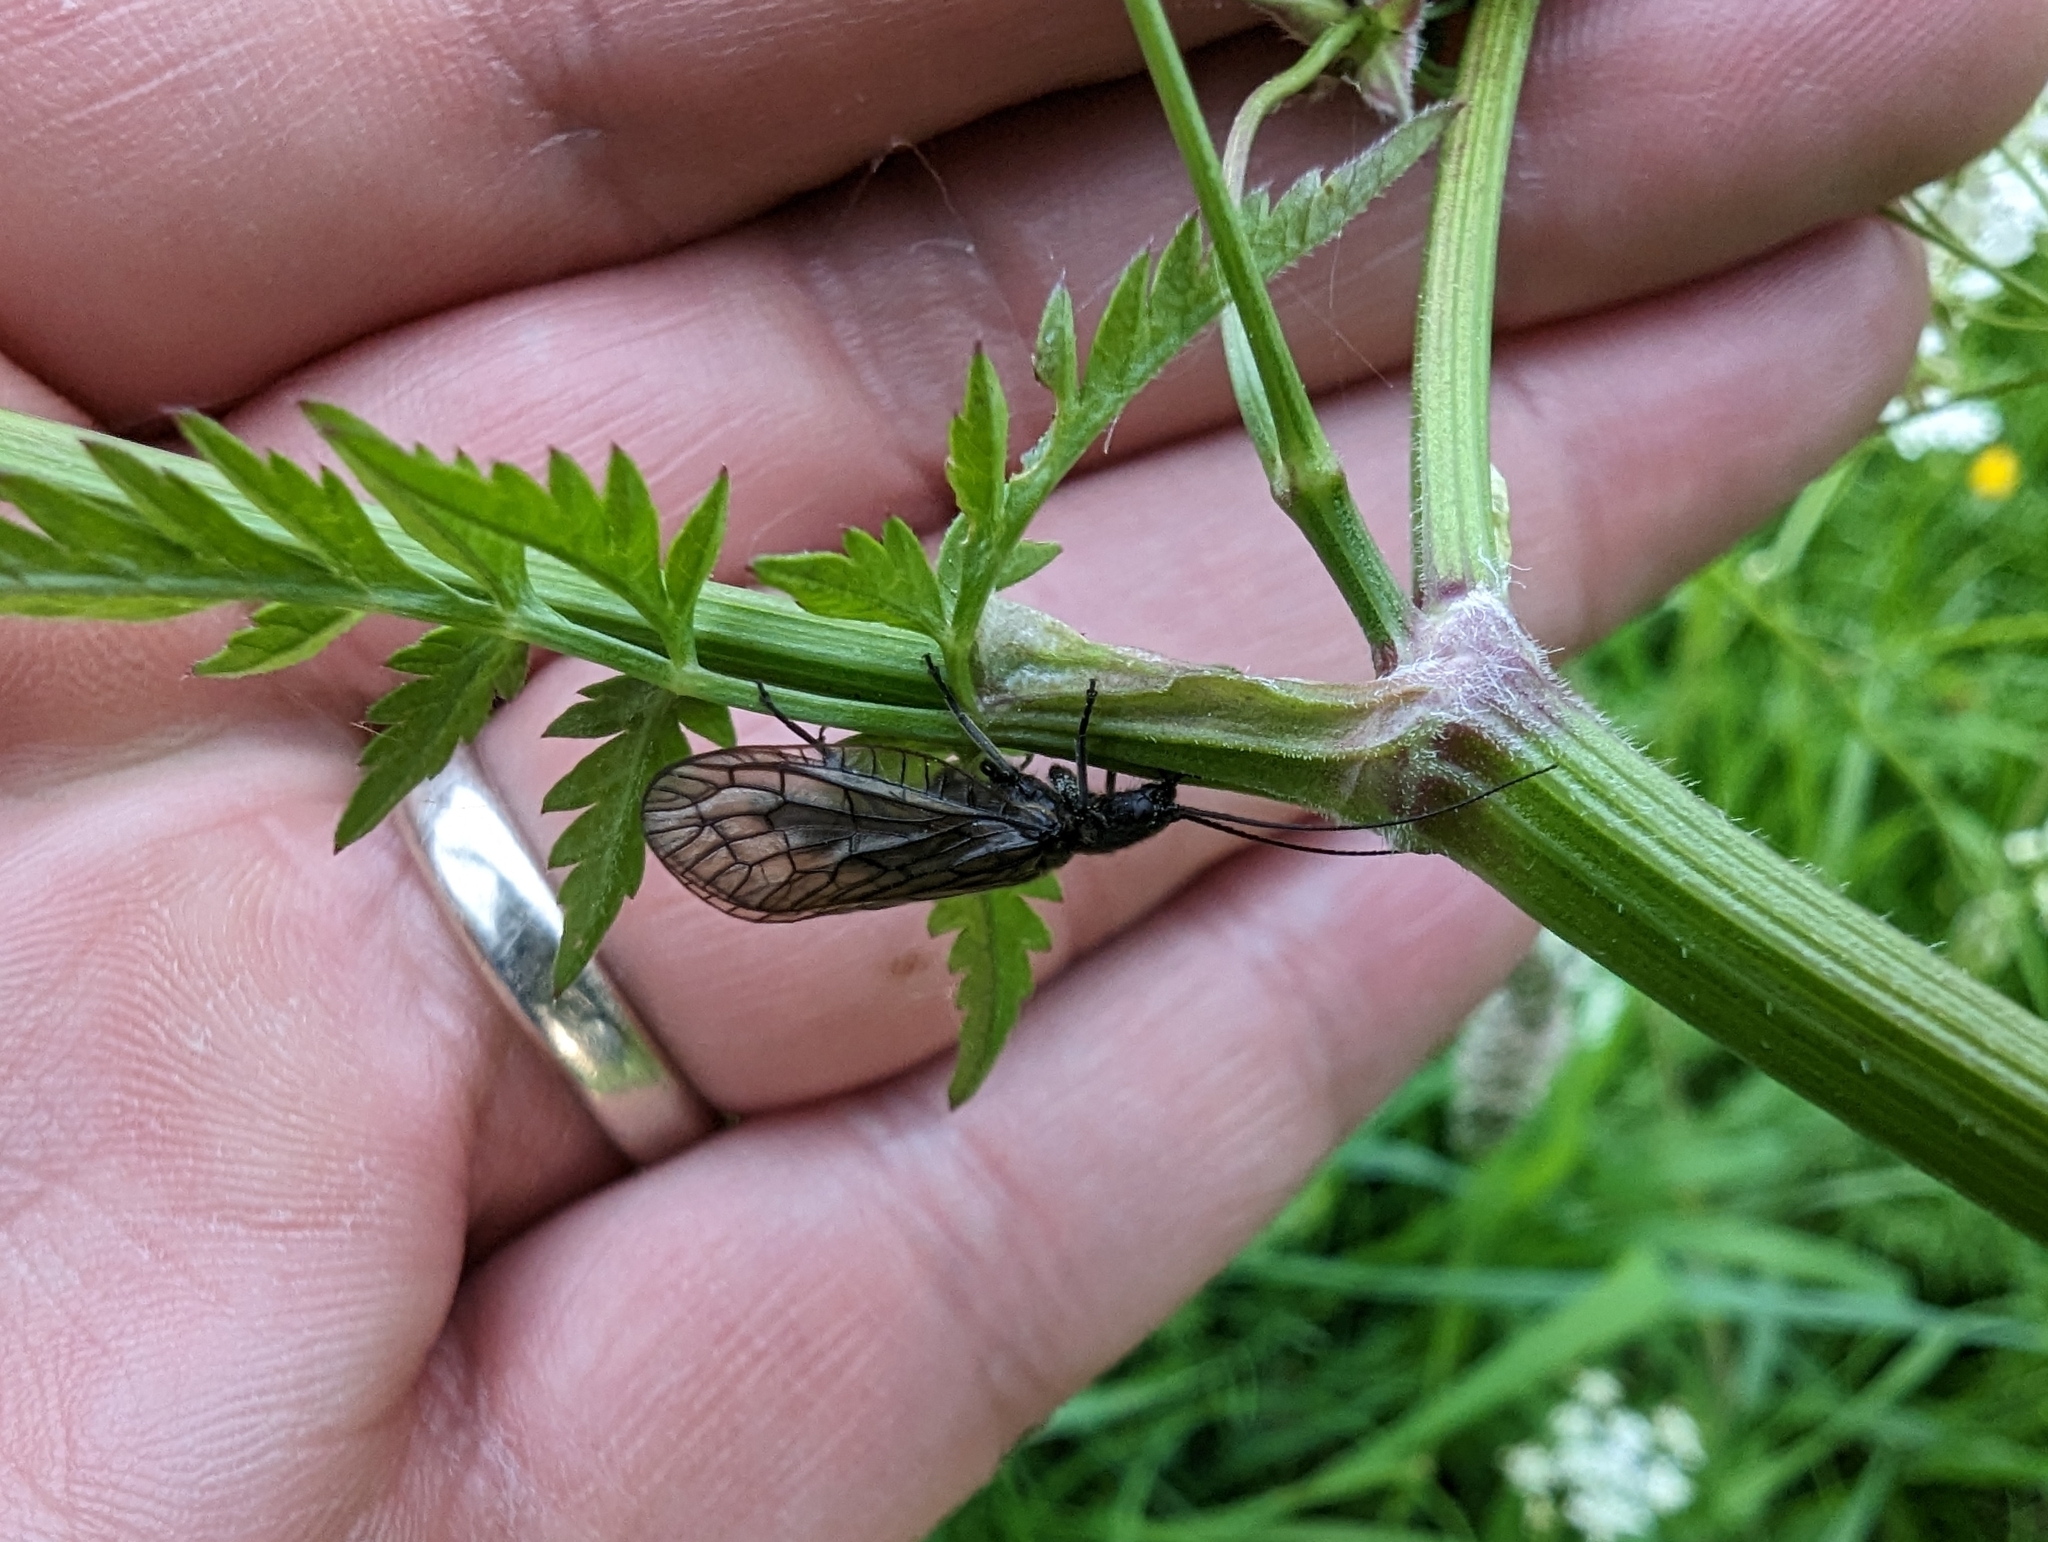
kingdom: Animalia
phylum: Arthropoda
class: Insecta
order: Megaloptera
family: Sialidae
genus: Sialis
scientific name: Sialis
